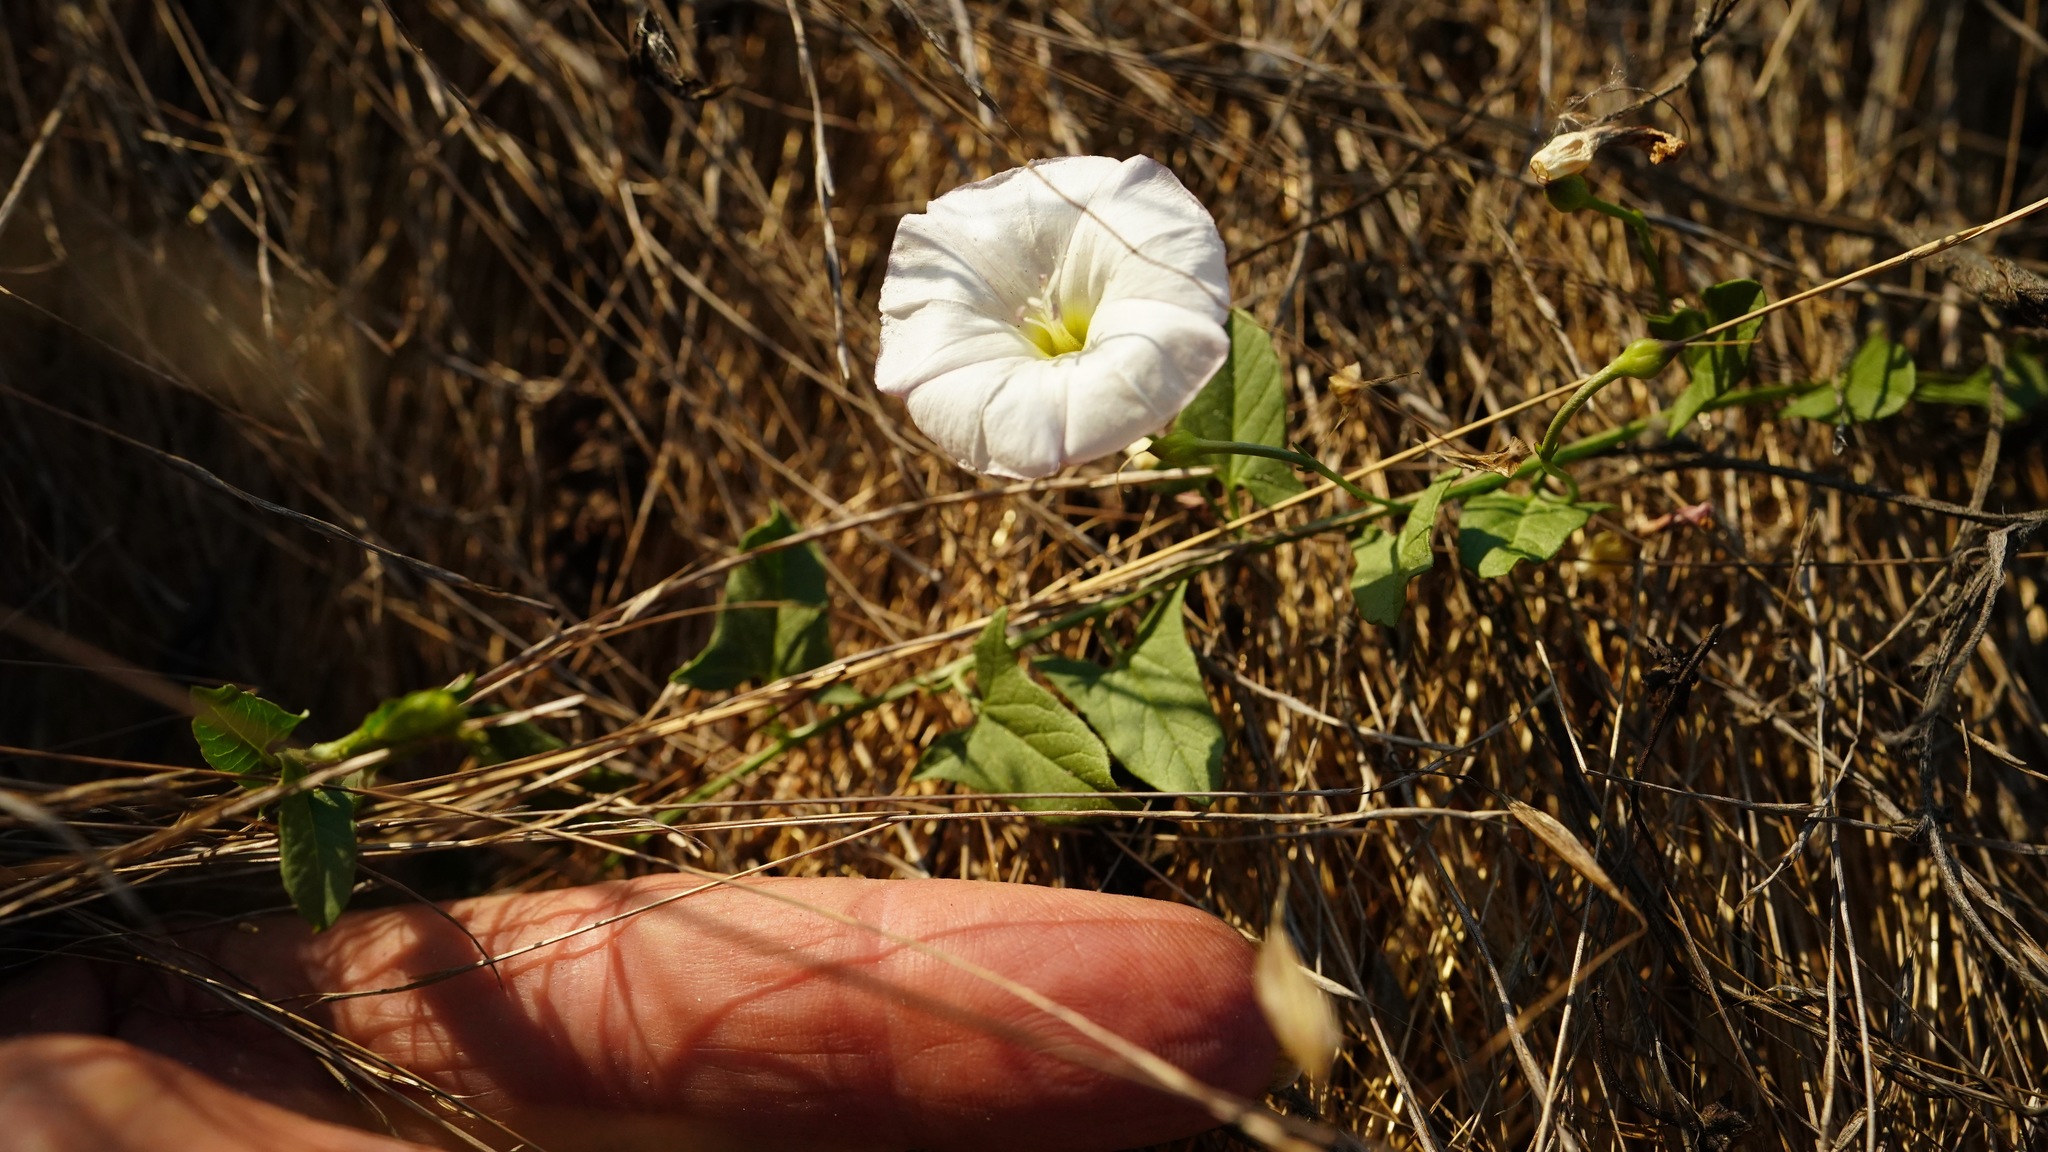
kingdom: Plantae
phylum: Tracheophyta
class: Magnoliopsida
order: Solanales
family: Convolvulaceae
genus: Convolvulus
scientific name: Convolvulus arvensis
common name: Field bindweed
